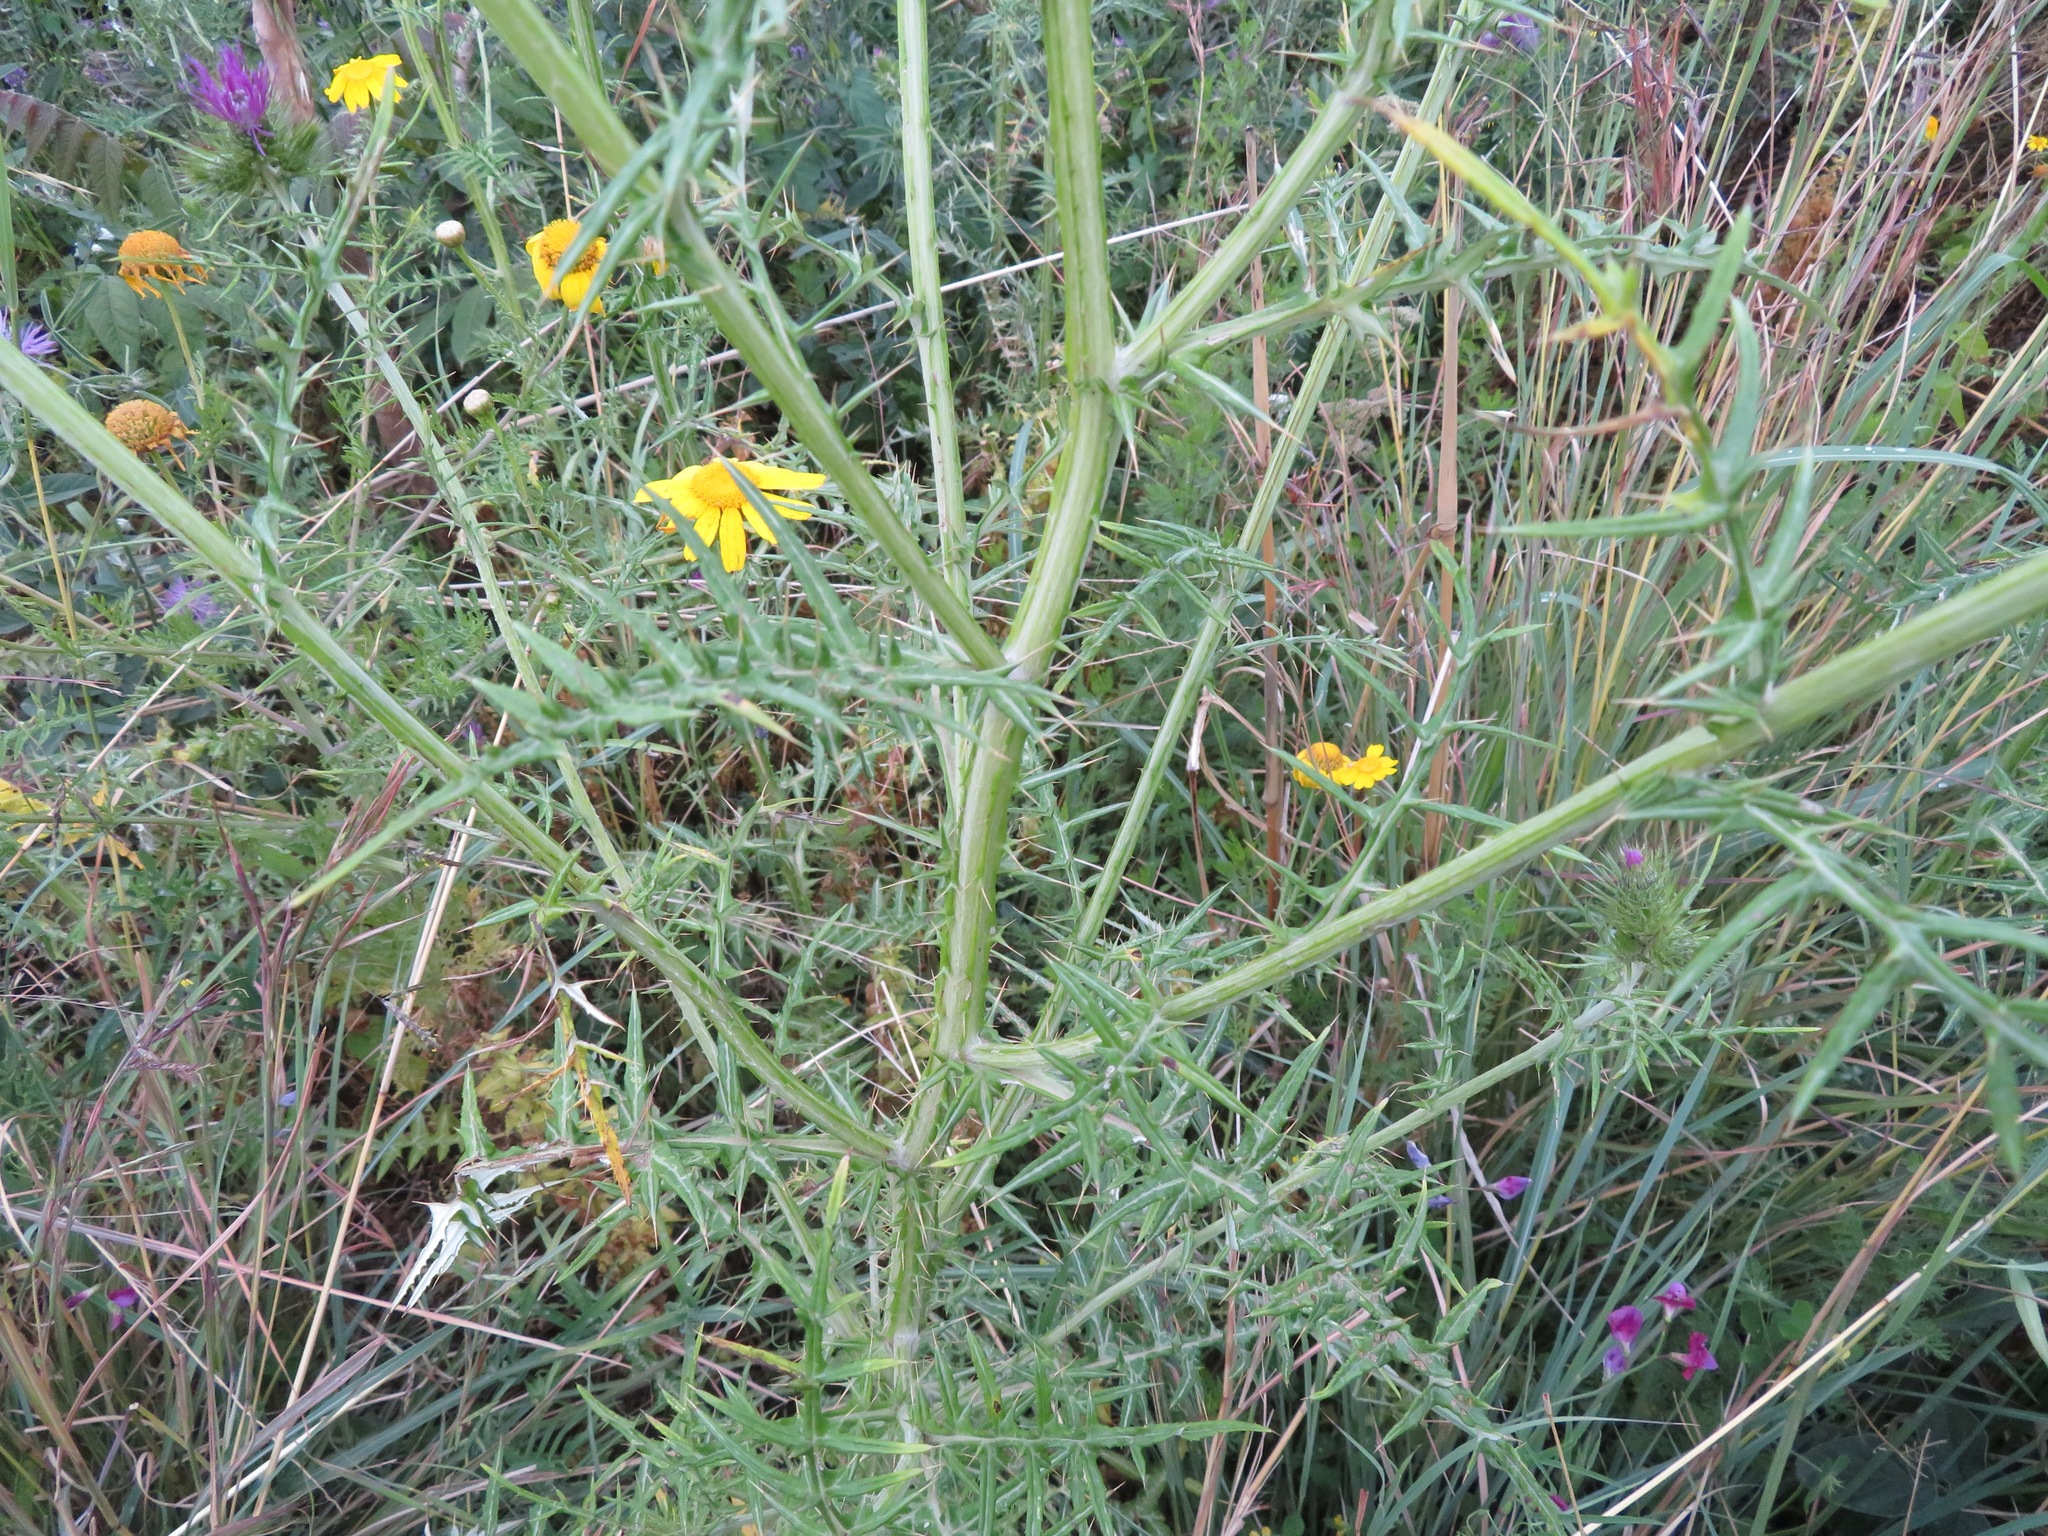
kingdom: Plantae
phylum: Tracheophyta
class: Magnoliopsida
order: Asterales
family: Asteraceae
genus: Galactites
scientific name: Galactites tomentosa
